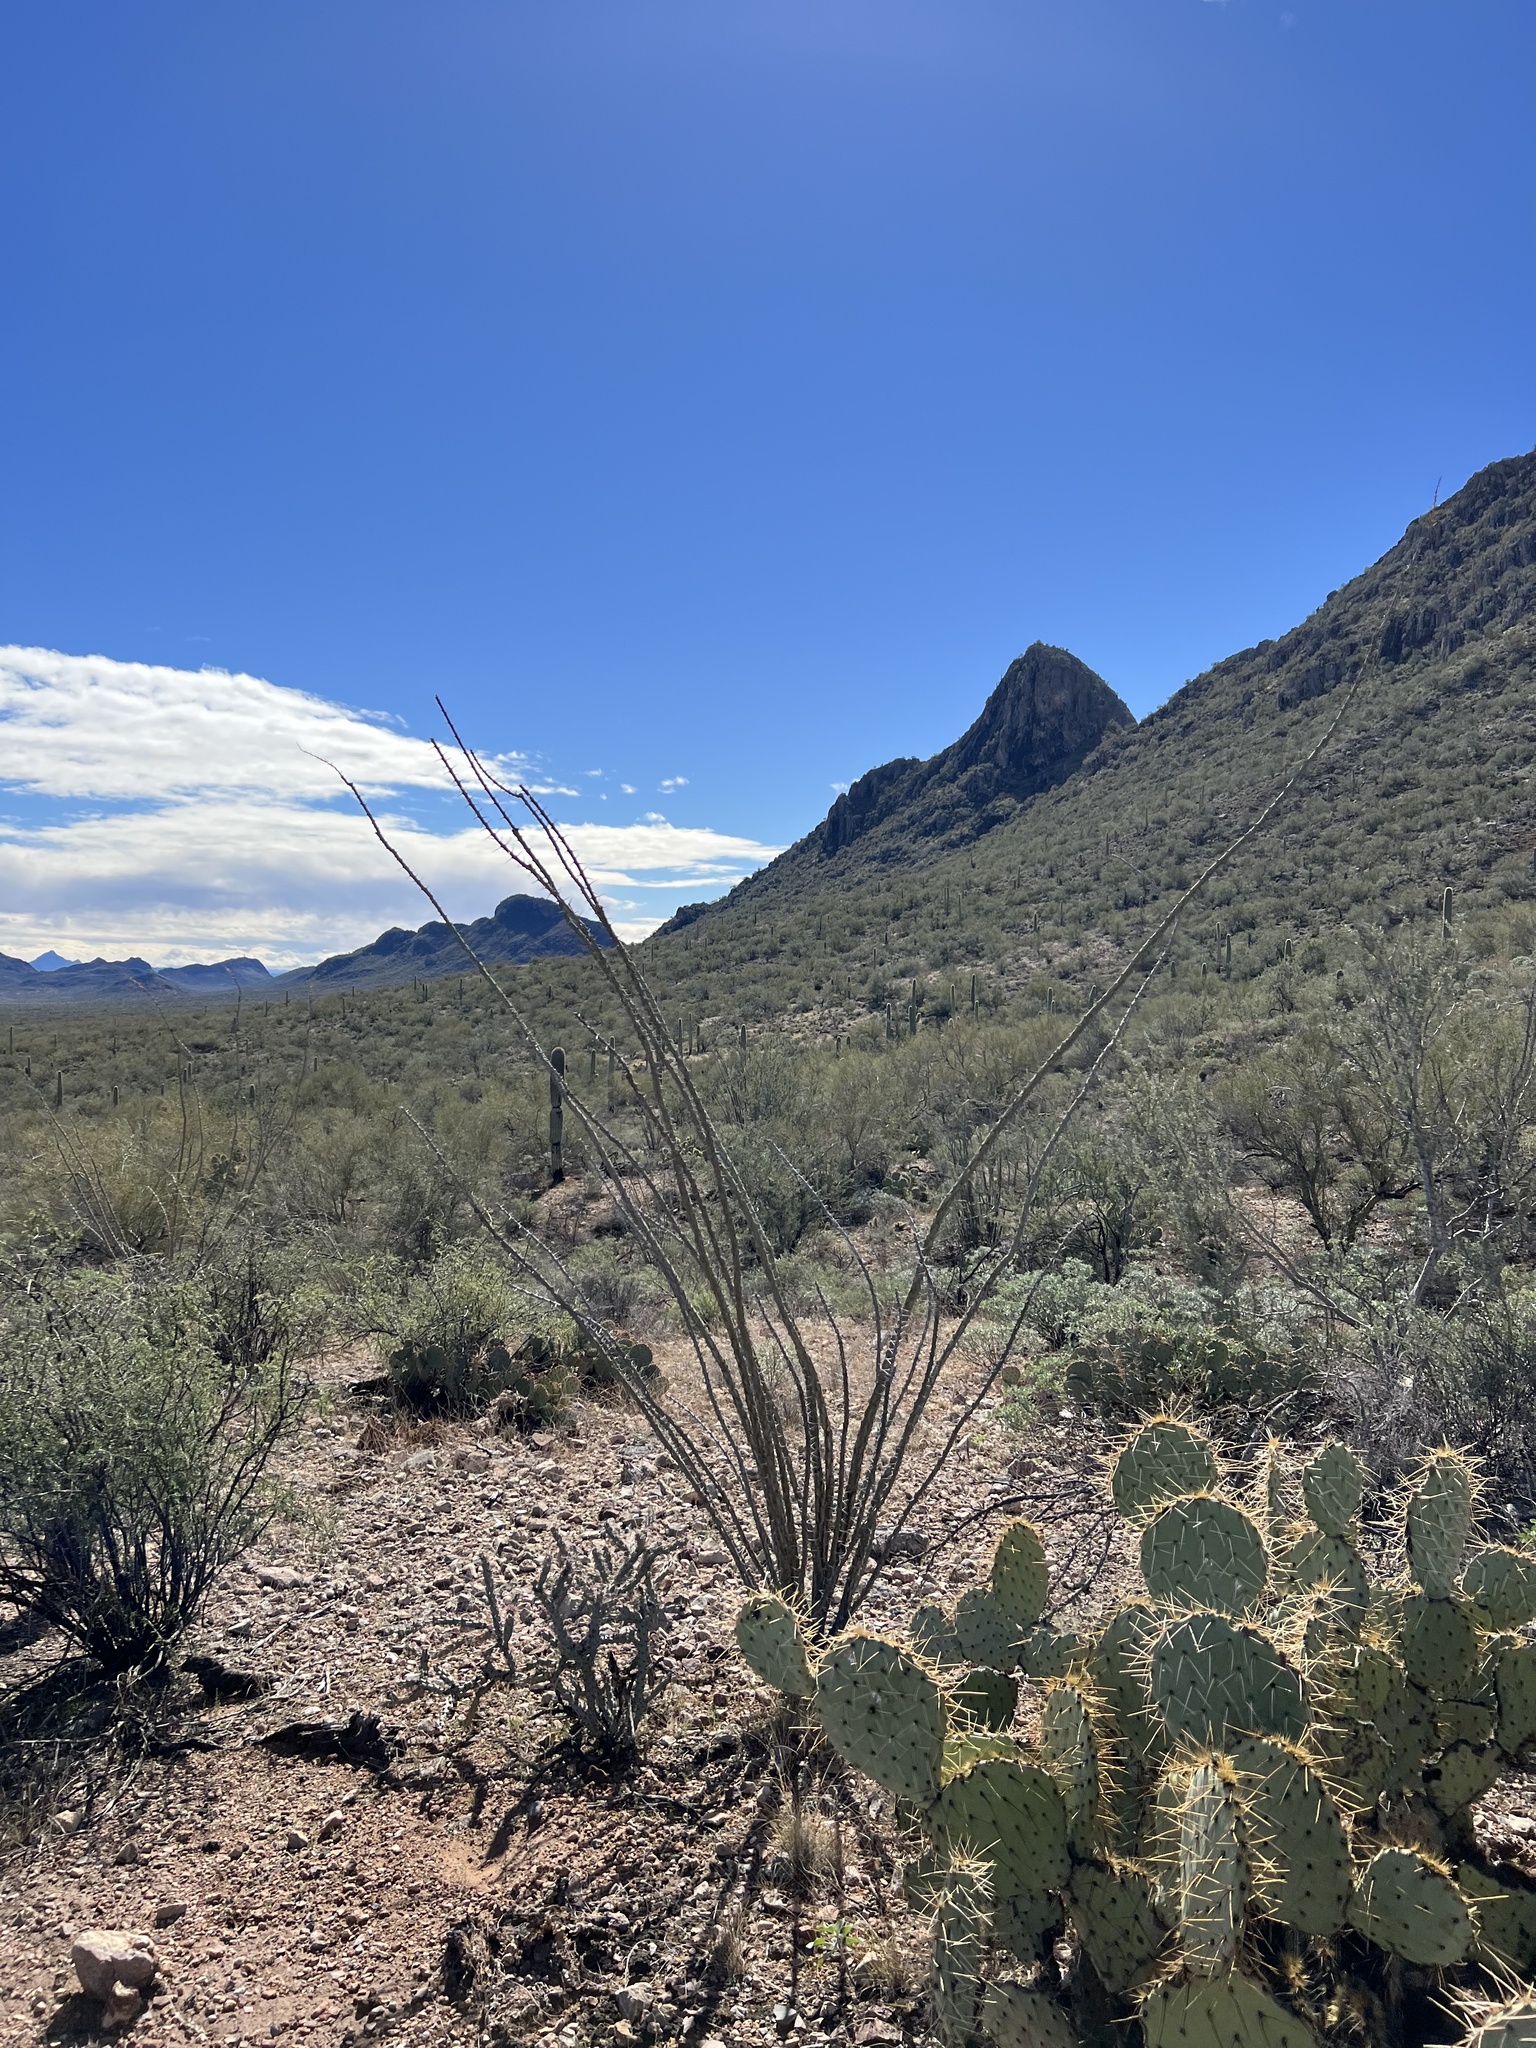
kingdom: Plantae
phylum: Tracheophyta
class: Magnoliopsida
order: Ericales
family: Fouquieriaceae
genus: Fouquieria
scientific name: Fouquieria splendens
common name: Vine-cactus
